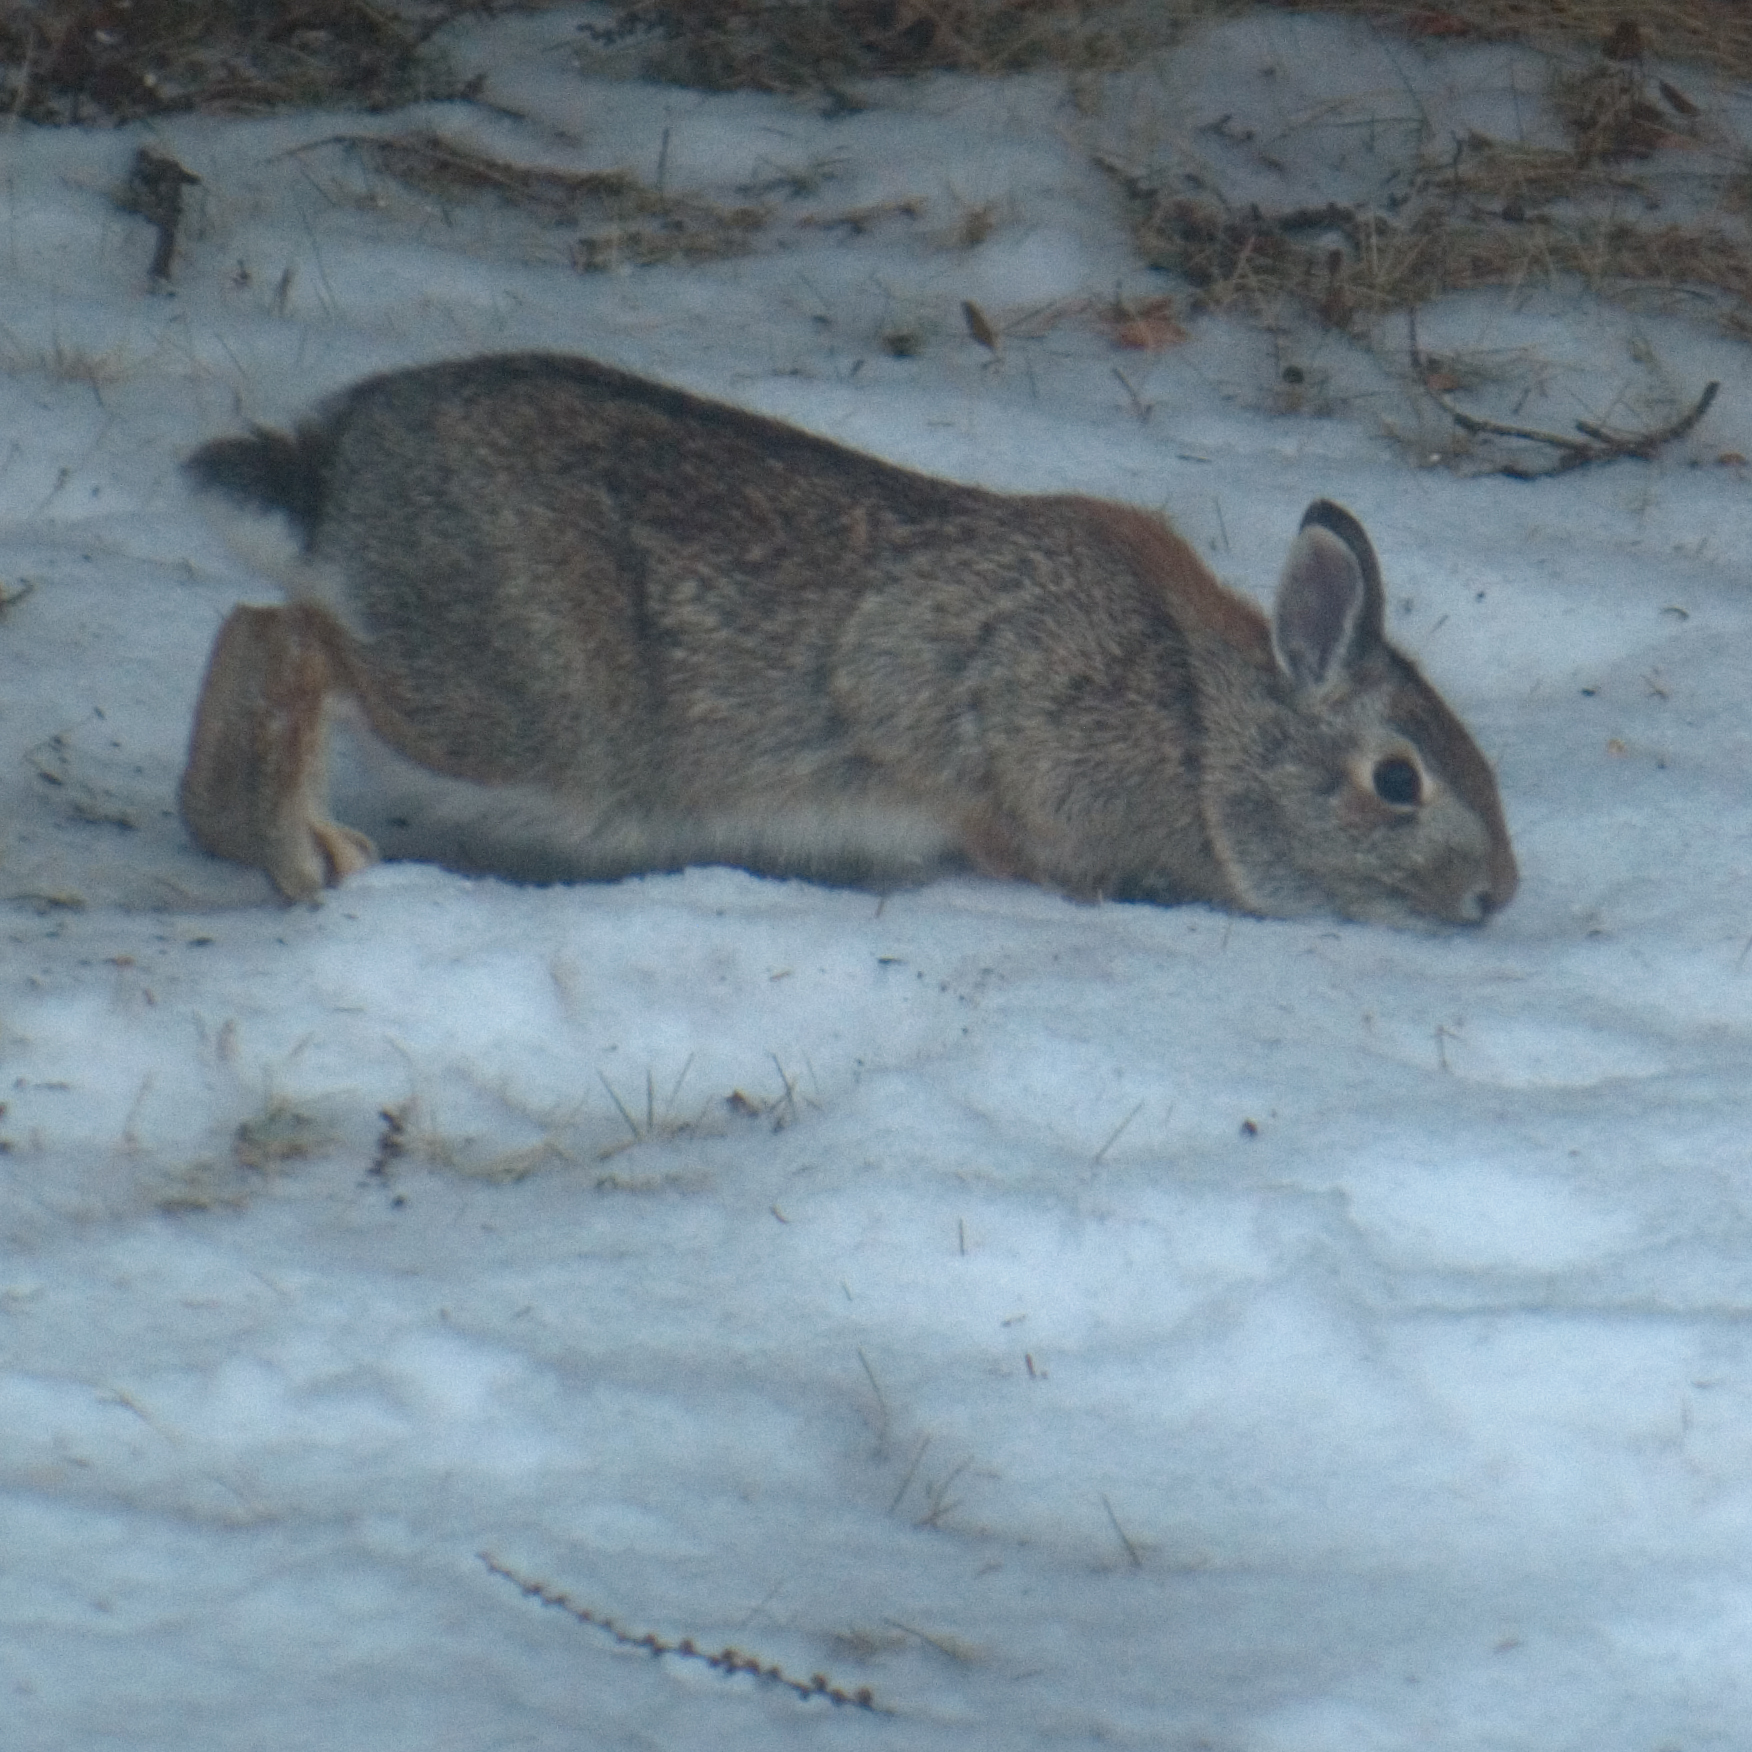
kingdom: Animalia
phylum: Chordata
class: Mammalia
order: Lagomorpha
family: Leporidae
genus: Sylvilagus
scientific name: Sylvilagus floridanus
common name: Eastern cottontail
